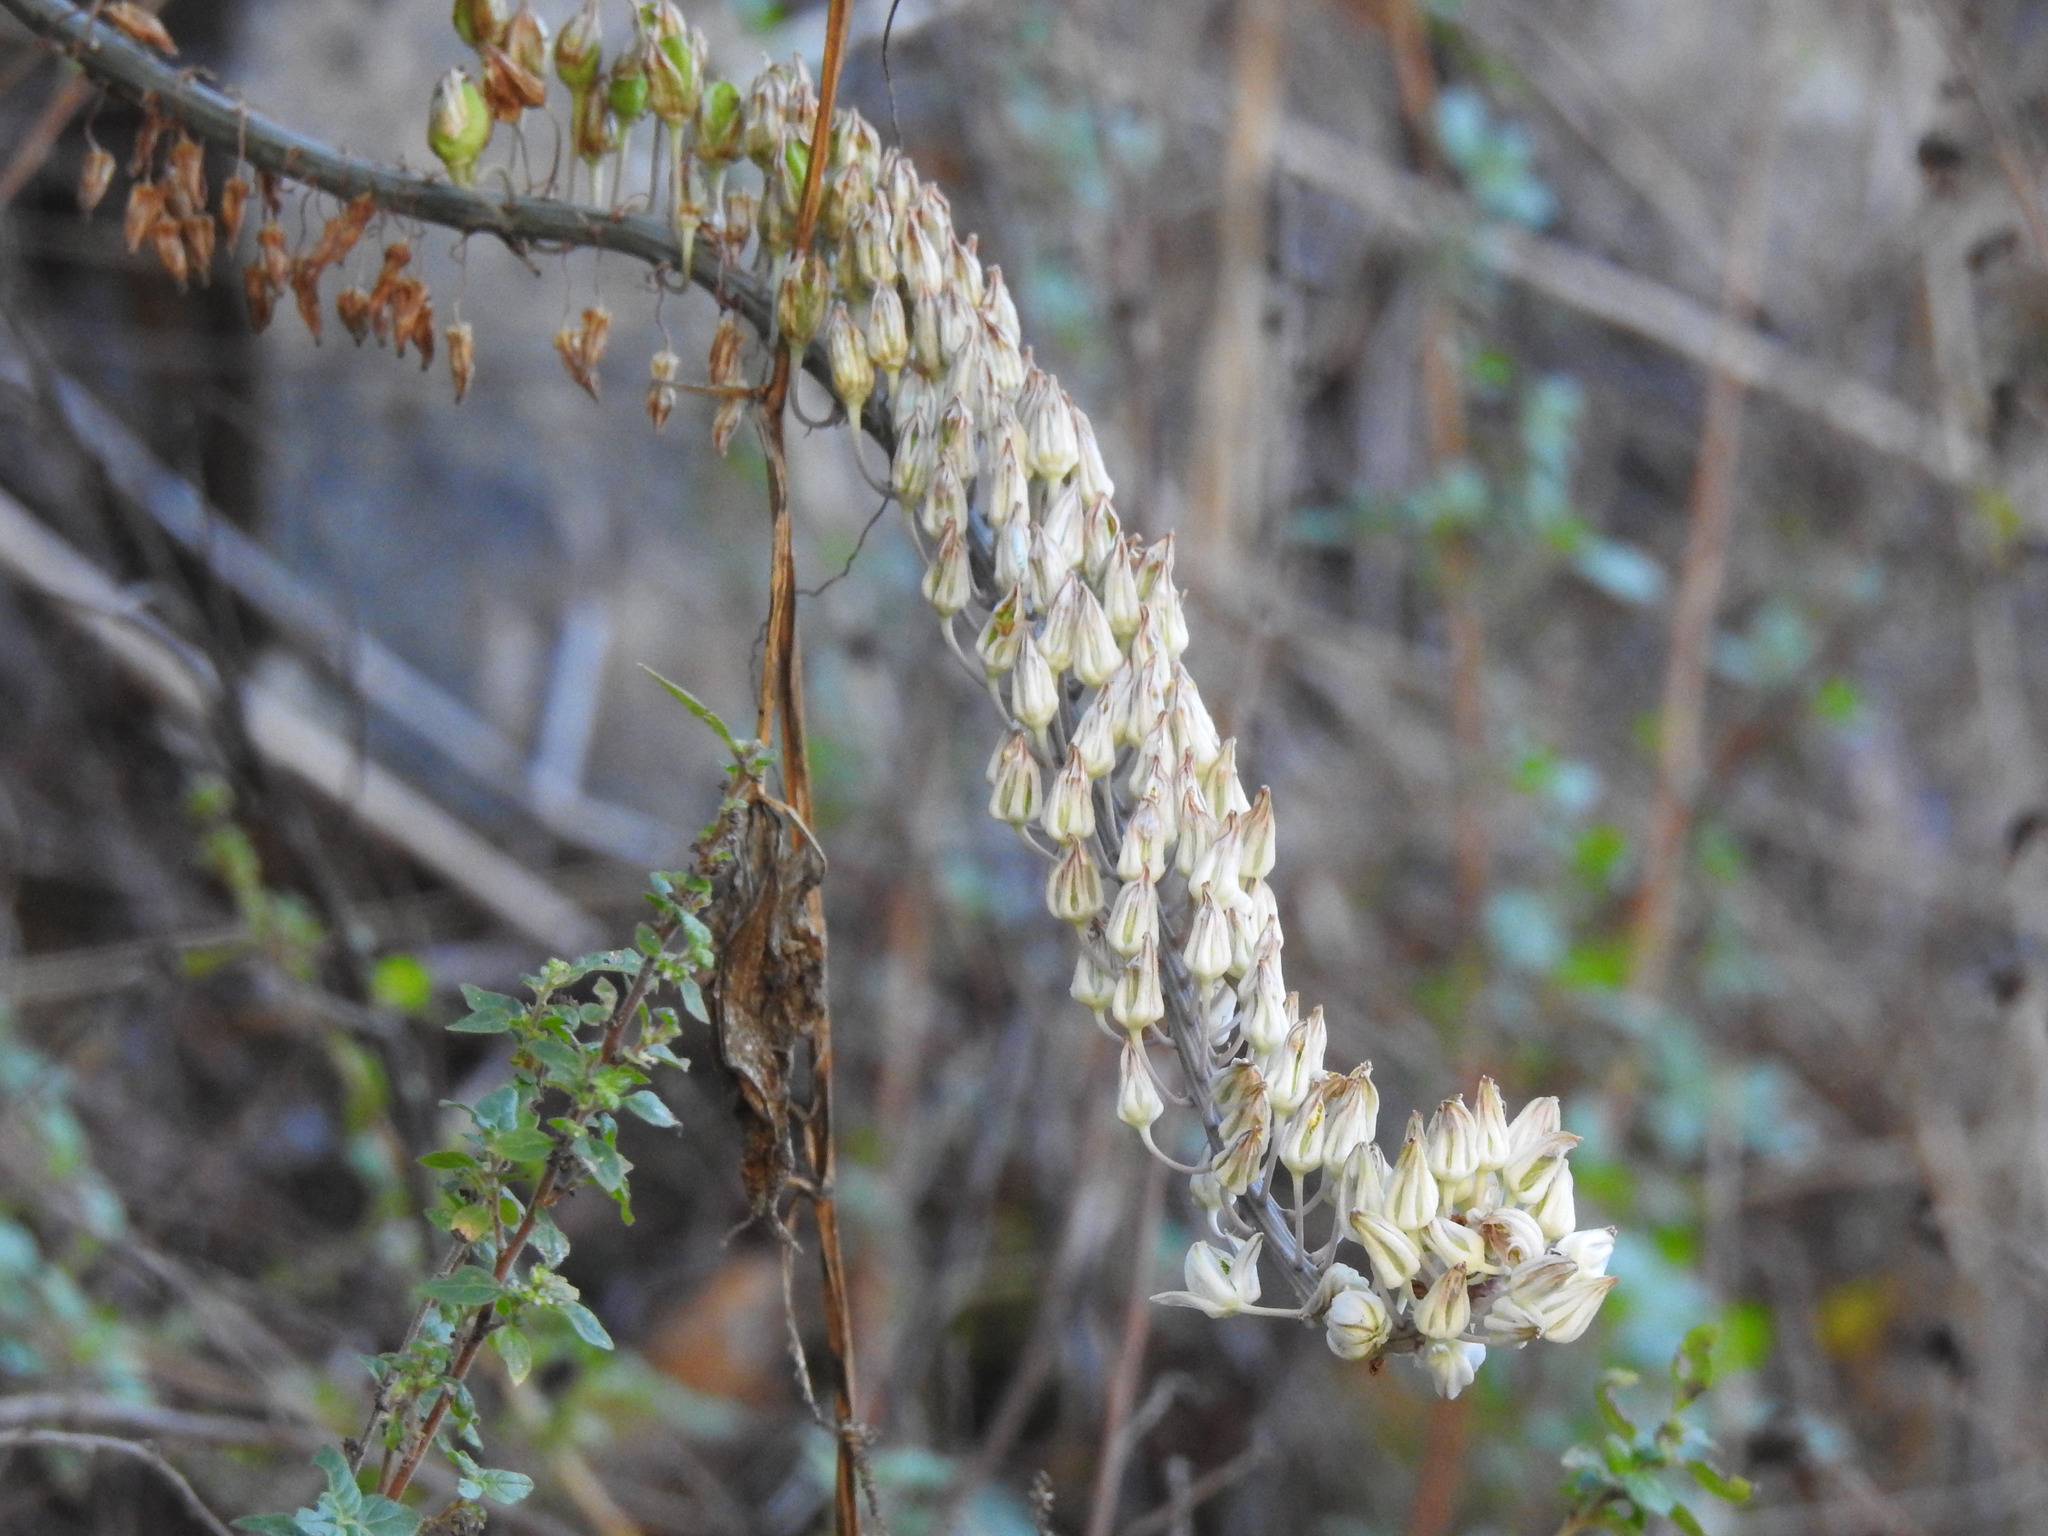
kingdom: Plantae
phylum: Tracheophyta
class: Liliopsida
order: Asparagales
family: Asparagaceae
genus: Drimia
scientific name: Drimia maritima
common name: Maritime squill
